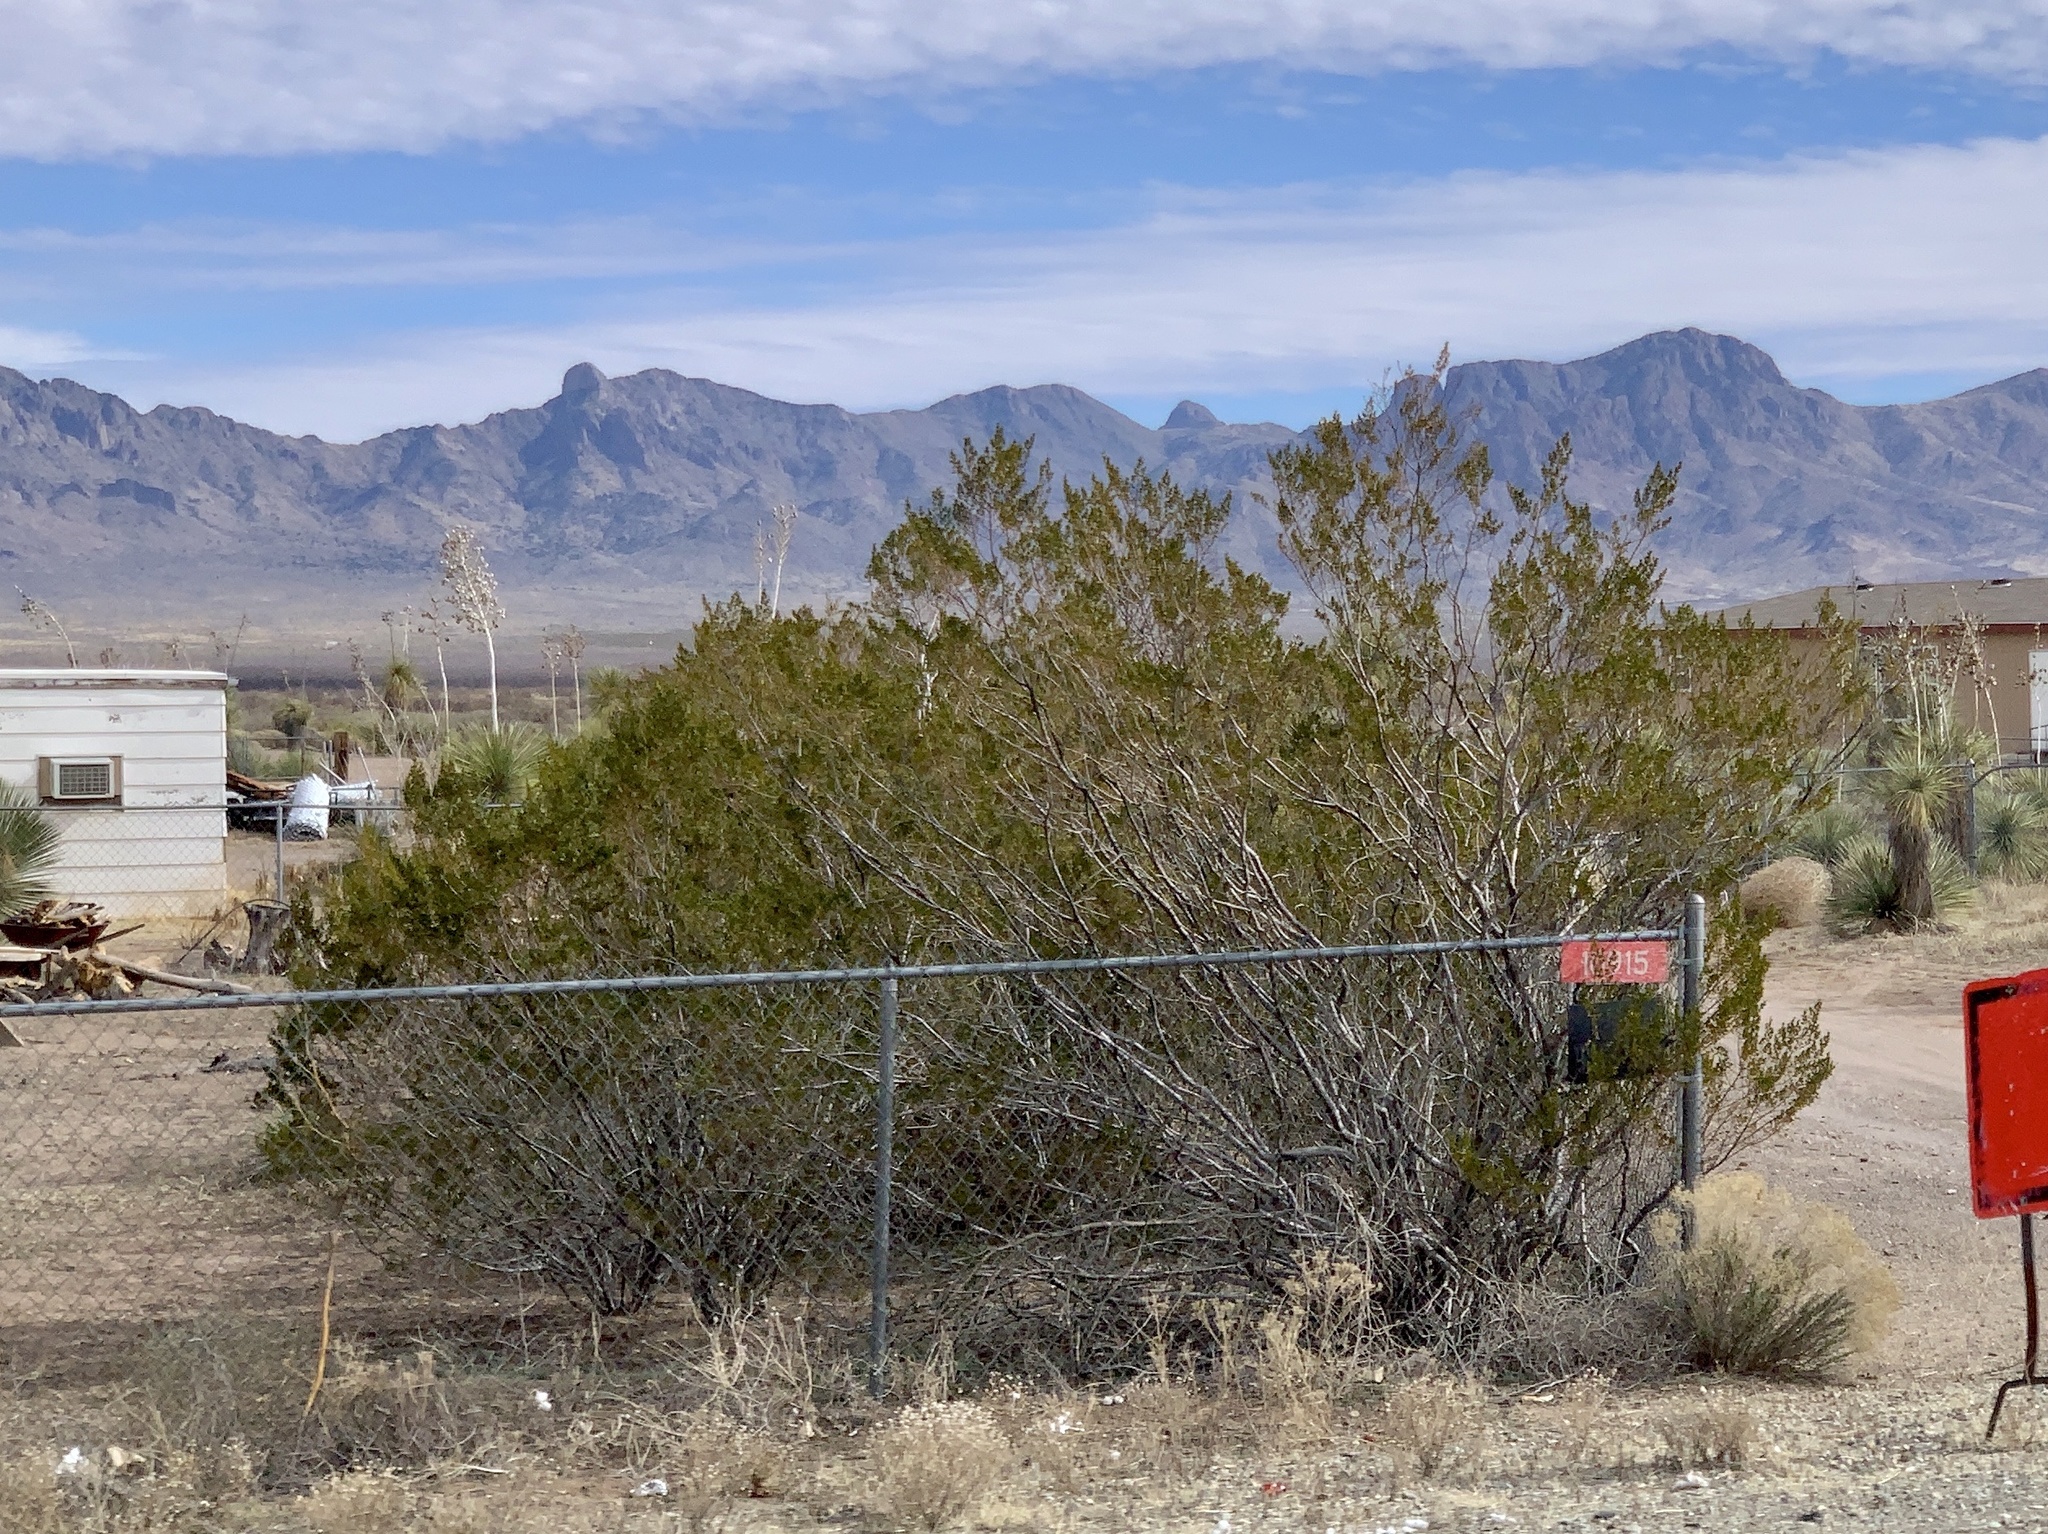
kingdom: Plantae
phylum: Tracheophyta
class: Magnoliopsida
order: Zygophyllales
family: Zygophyllaceae
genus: Larrea
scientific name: Larrea tridentata
